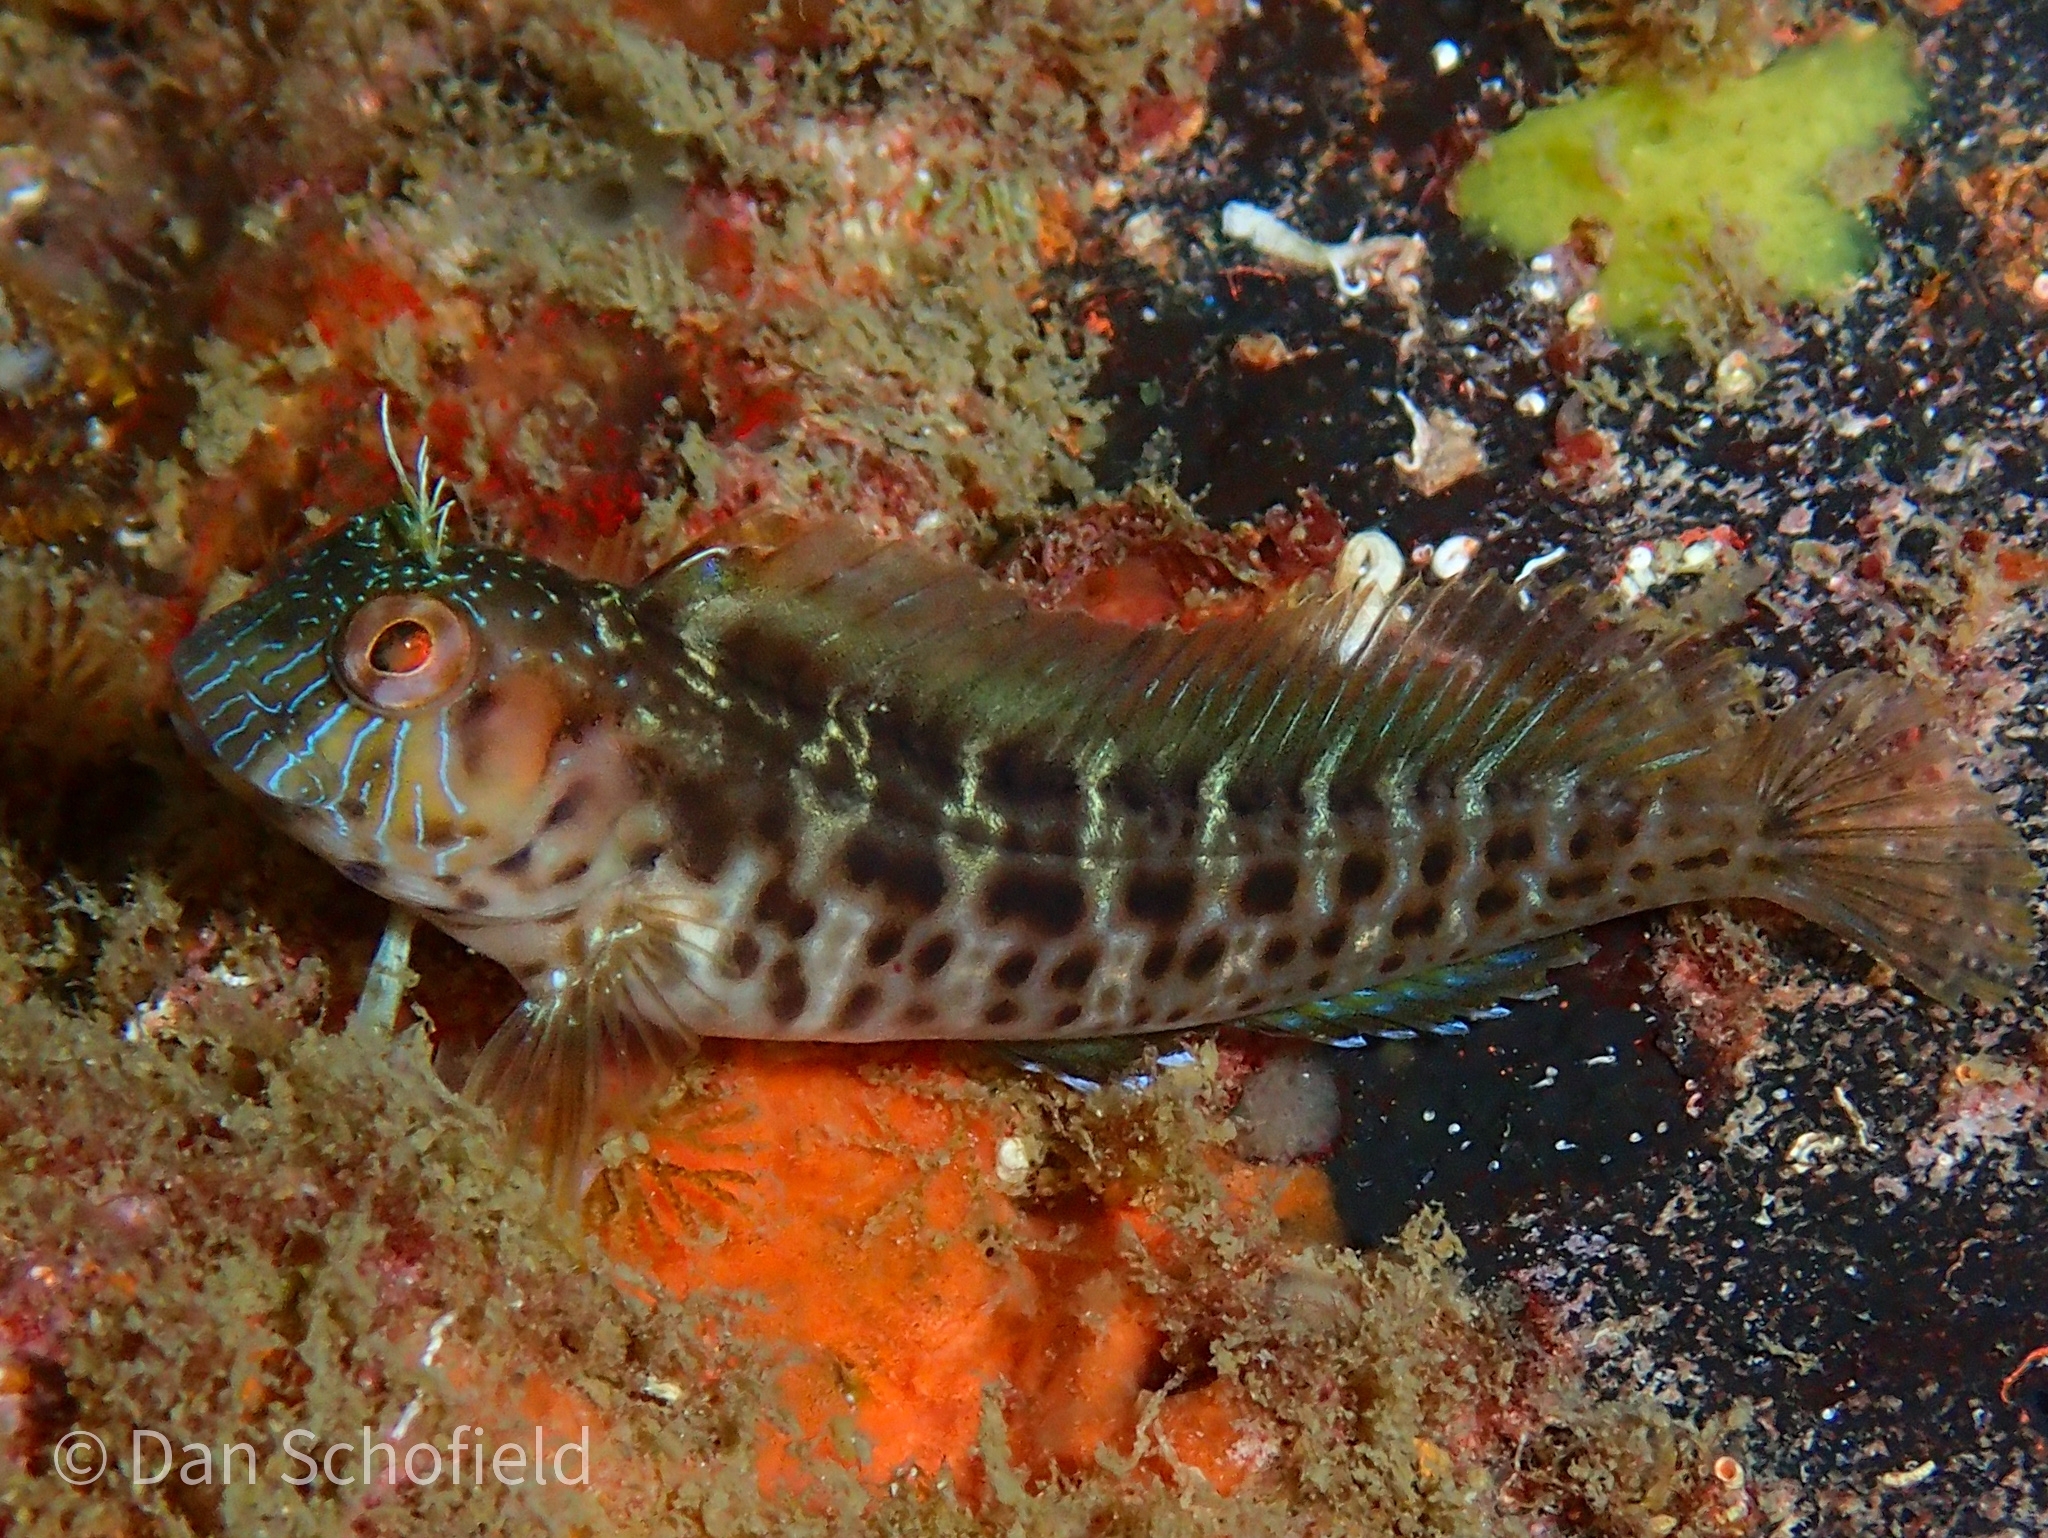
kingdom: Animalia
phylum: Chordata
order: Perciformes
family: Blenniidae
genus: Parablennius
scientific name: Parablennius marmoreus
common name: Seaweed blenny
